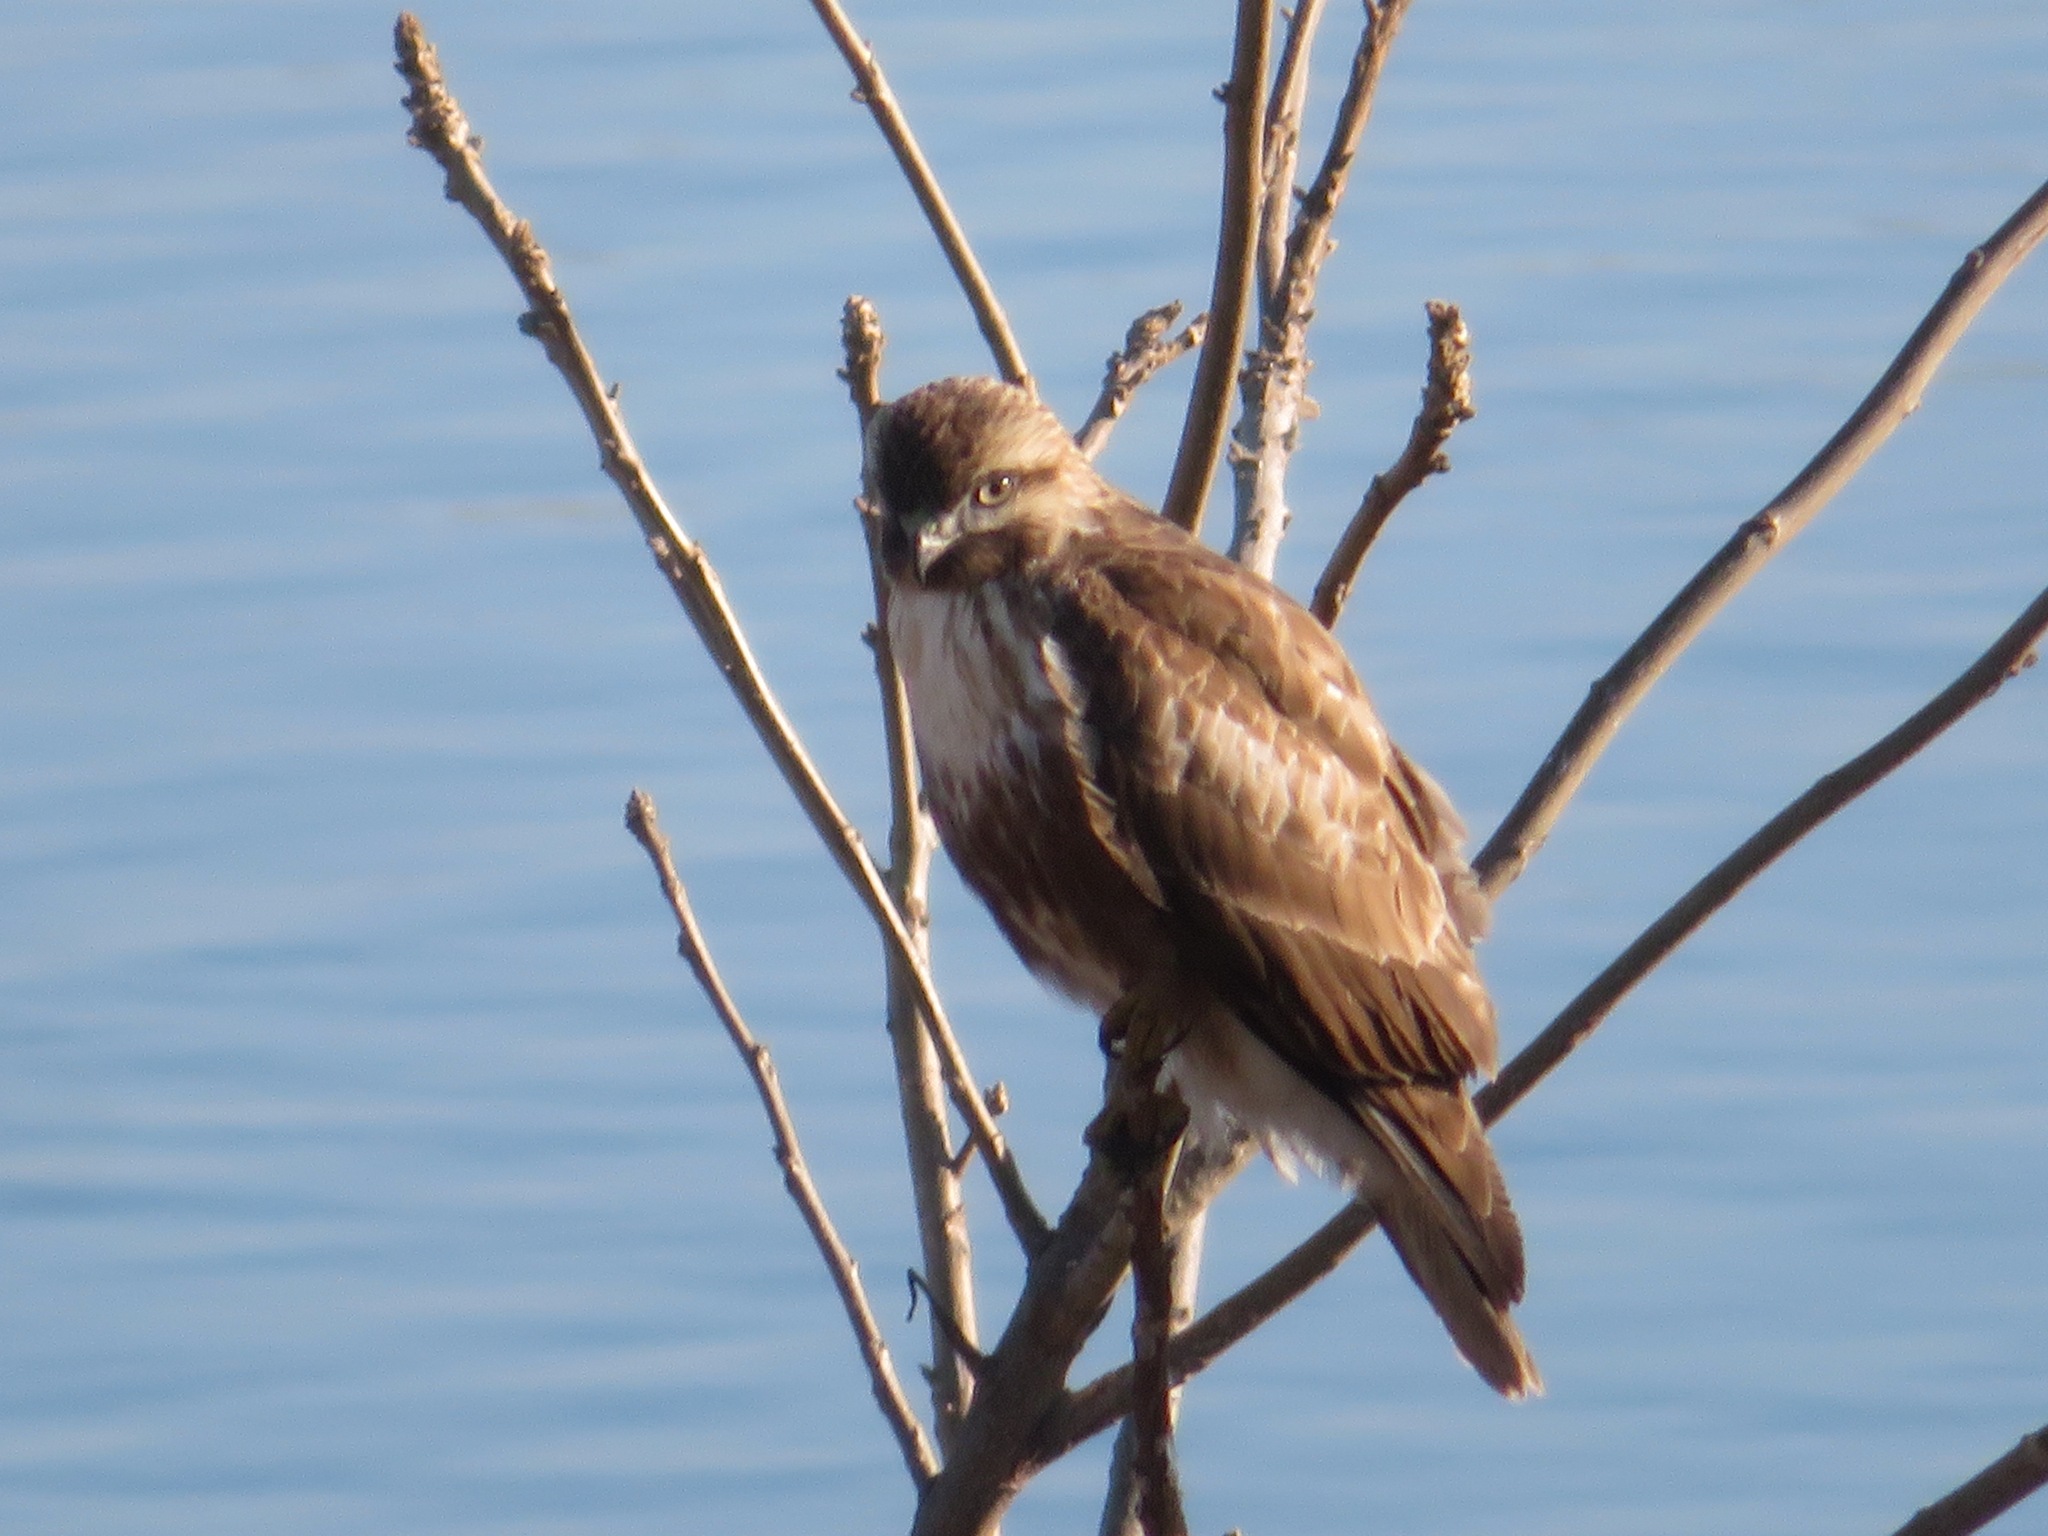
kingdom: Animalia
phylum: Chordata
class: Aves
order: Accipitriformes
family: Accipitridae
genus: Buteo
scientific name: Buteo japonicus
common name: Eastern buzzard
